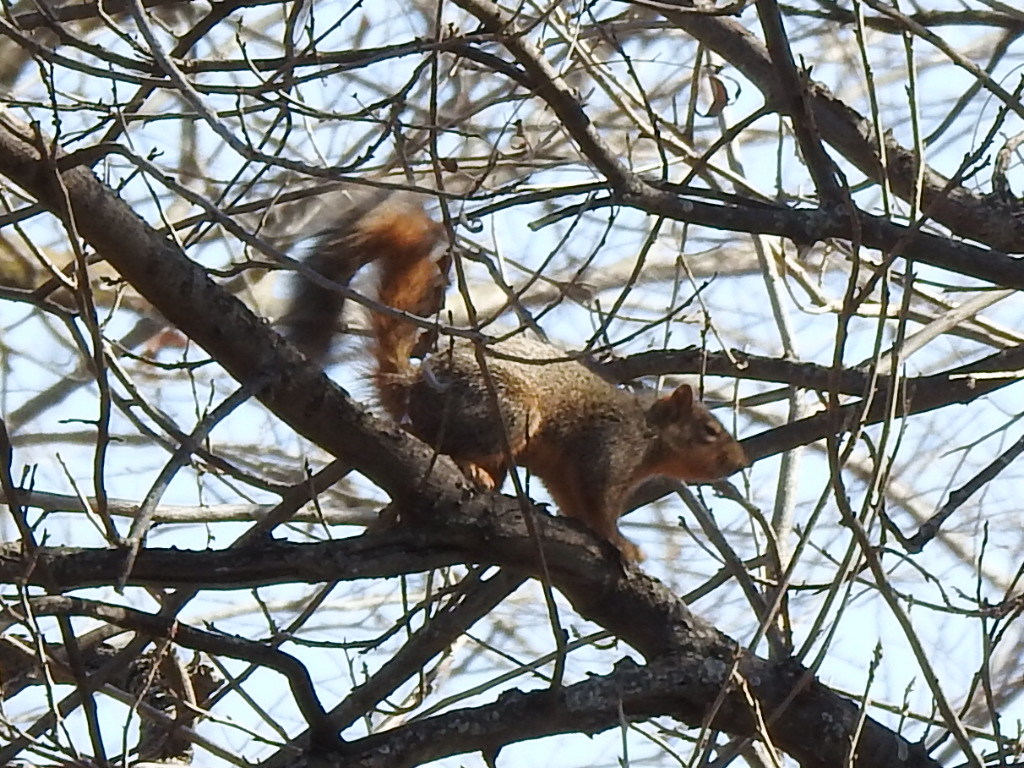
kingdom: Animalia
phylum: Chordata
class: Mammalia
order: Rodentia
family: Sciuridae
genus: Sciurus
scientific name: Sciurus niger
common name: Fox squirrel
